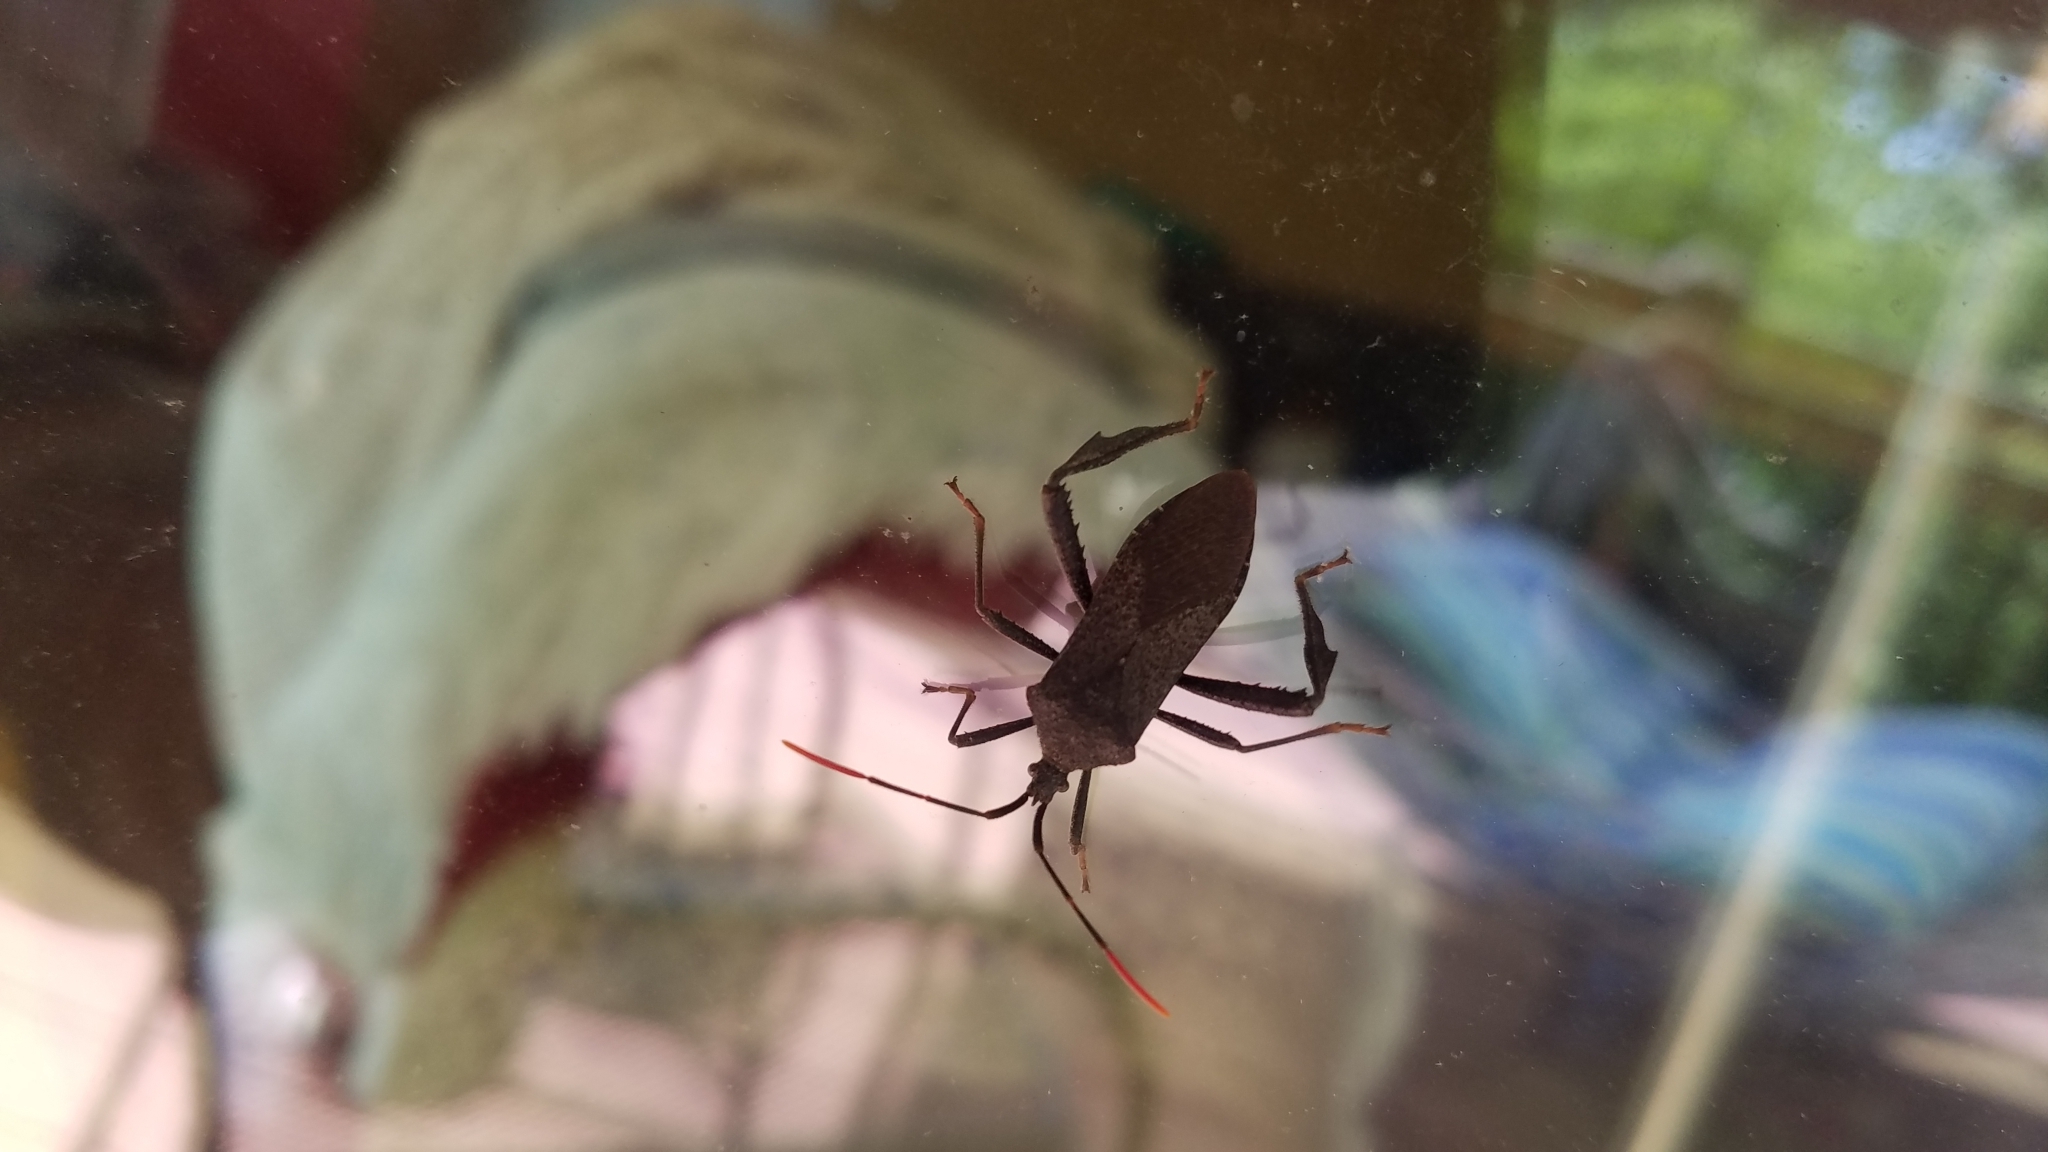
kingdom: Animalia
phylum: Arthropoda
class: Insecta
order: Hemiptera
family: Coreidae
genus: Acanthocephala
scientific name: Acanthocephala terminalis
